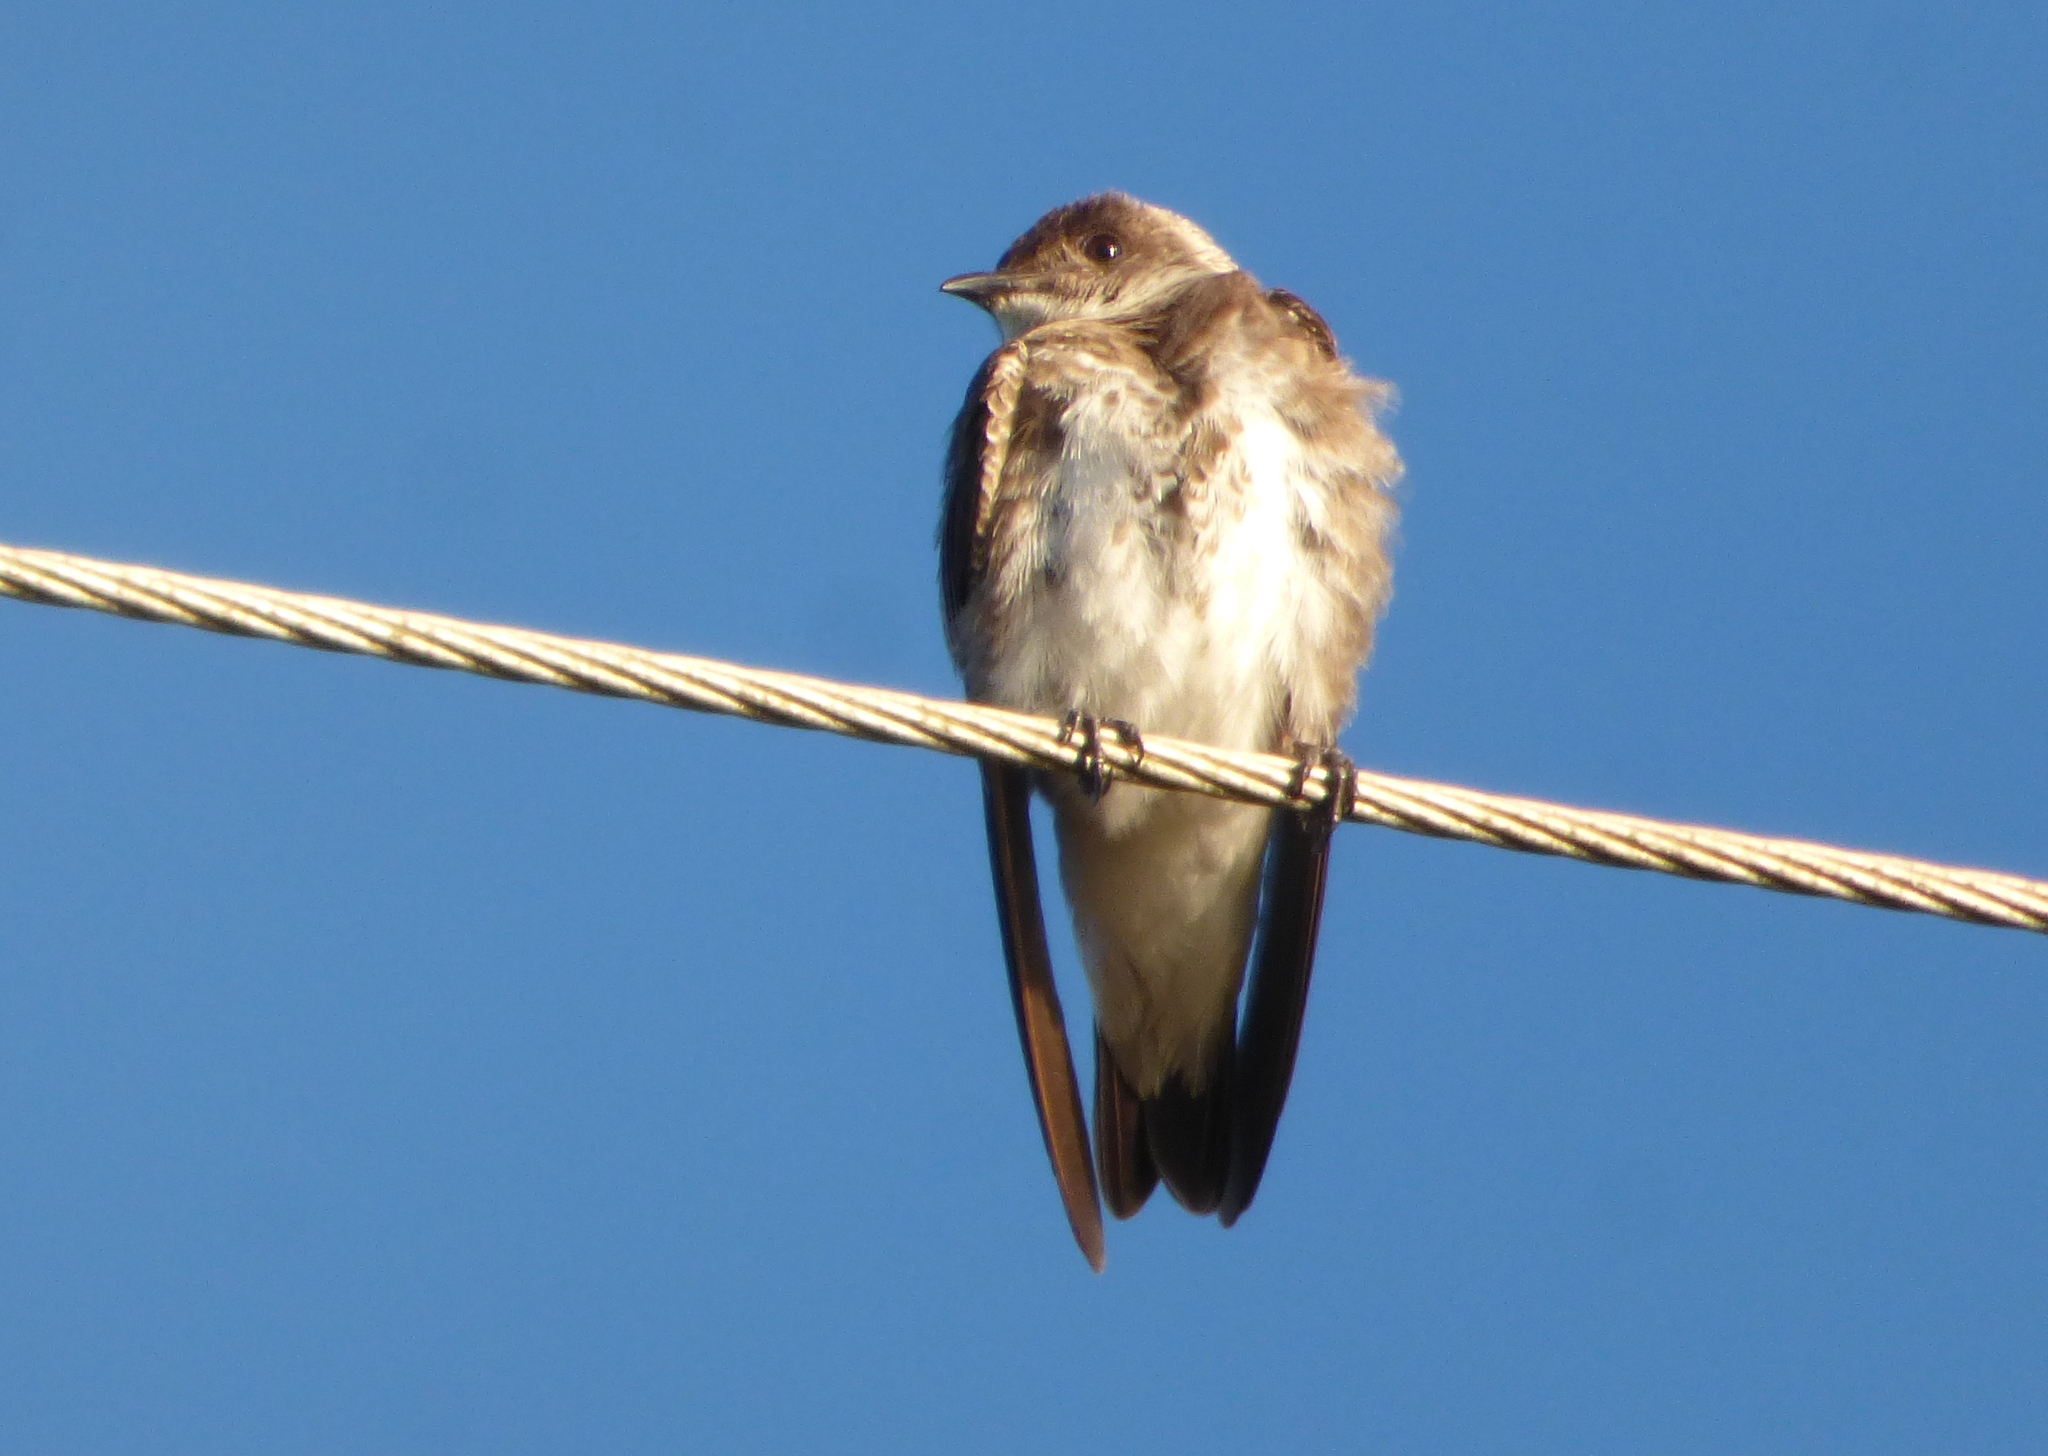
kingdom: Animalia
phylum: Chordata
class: Aves
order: Passeriformes
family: Hirundinidae
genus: Progne
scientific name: Progne tapera
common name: Brown-chested martin
